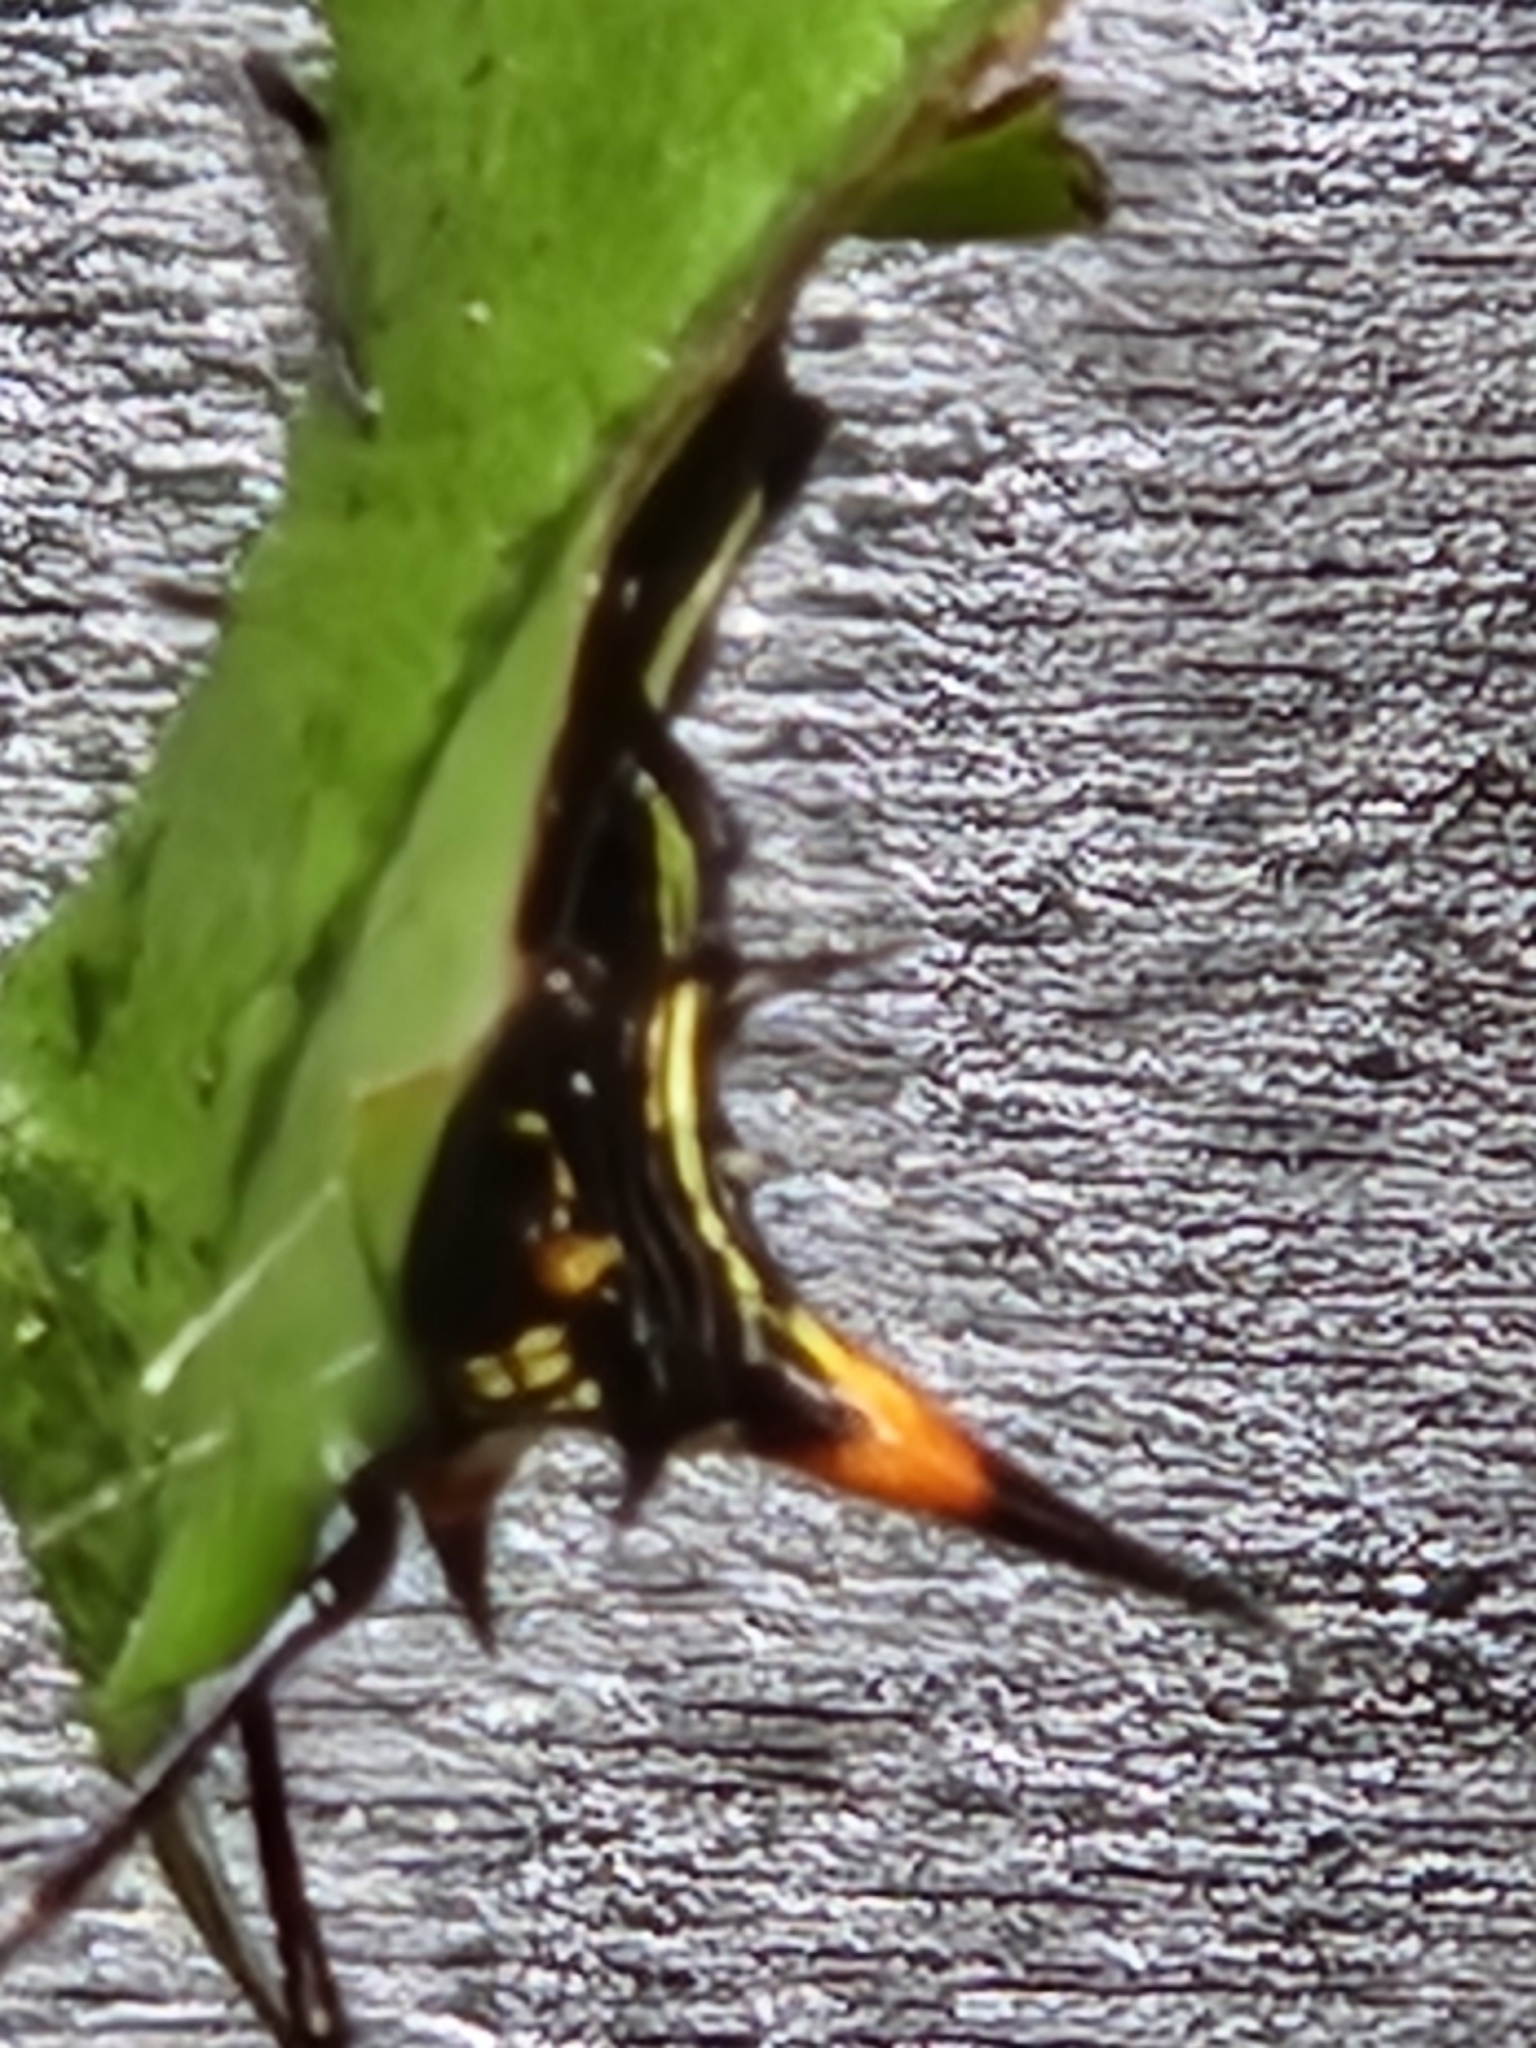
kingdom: Animalia
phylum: Arthropoda
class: Arachnida
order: Araneae
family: Araneidae
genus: Micrathena
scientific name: Micrathena schreibersi
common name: Orb weavers
